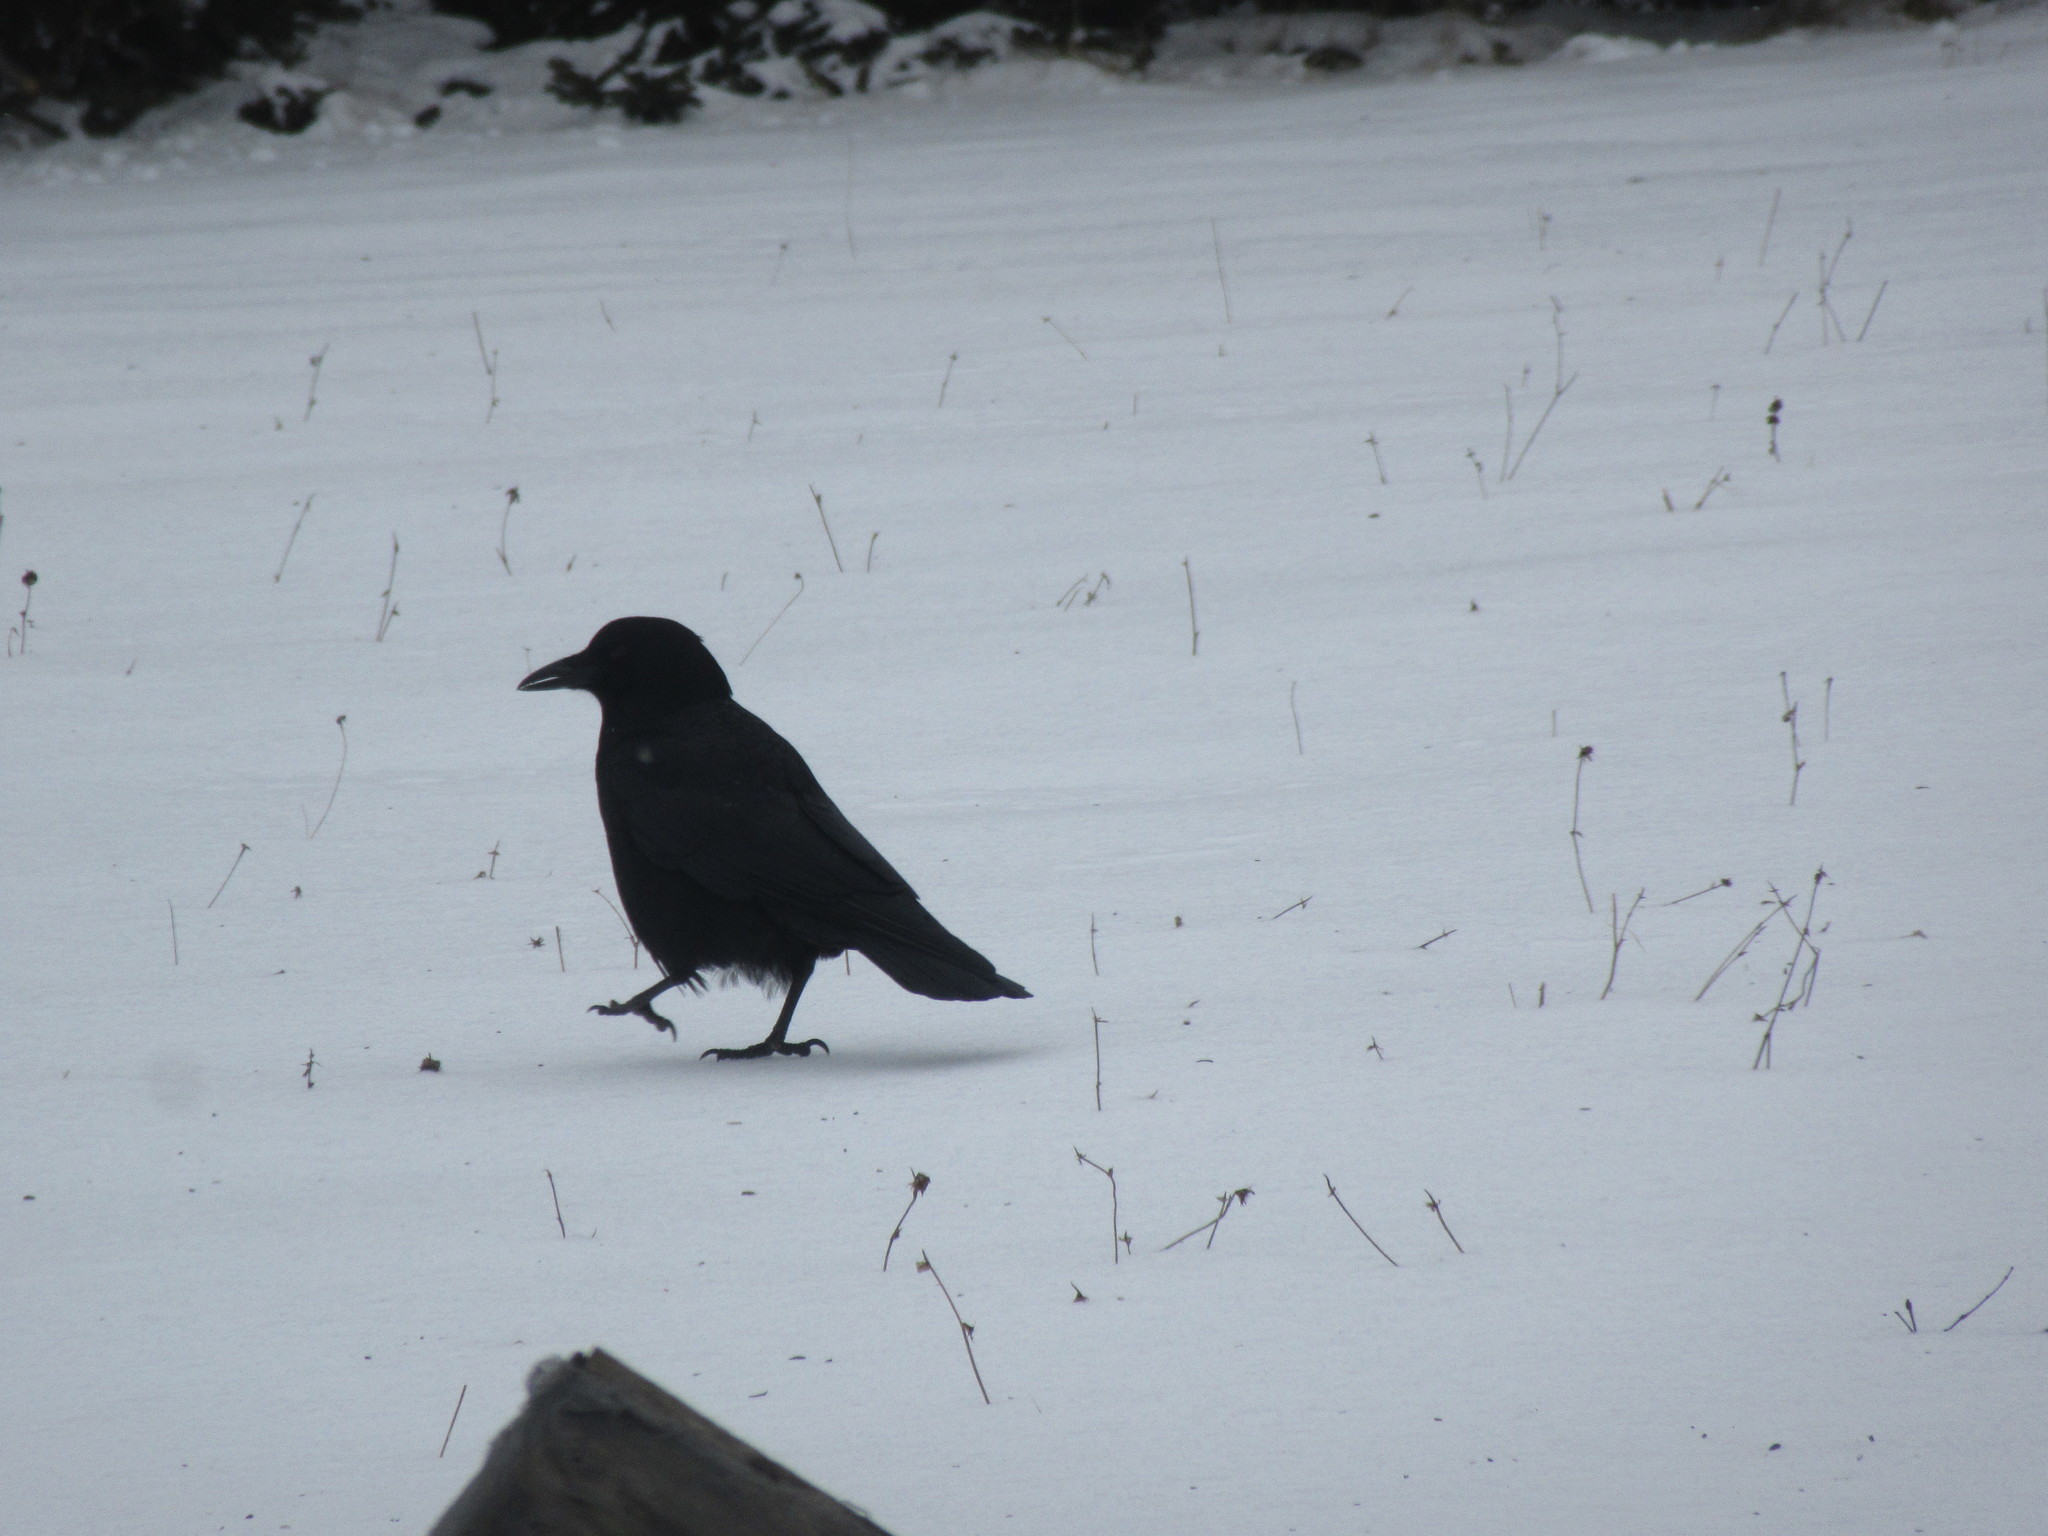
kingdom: Animalia
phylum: Chordata
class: Aves
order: Passeriformes
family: Corvidae
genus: Corvus
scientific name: Corvus brachyrhynchos
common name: American crow
